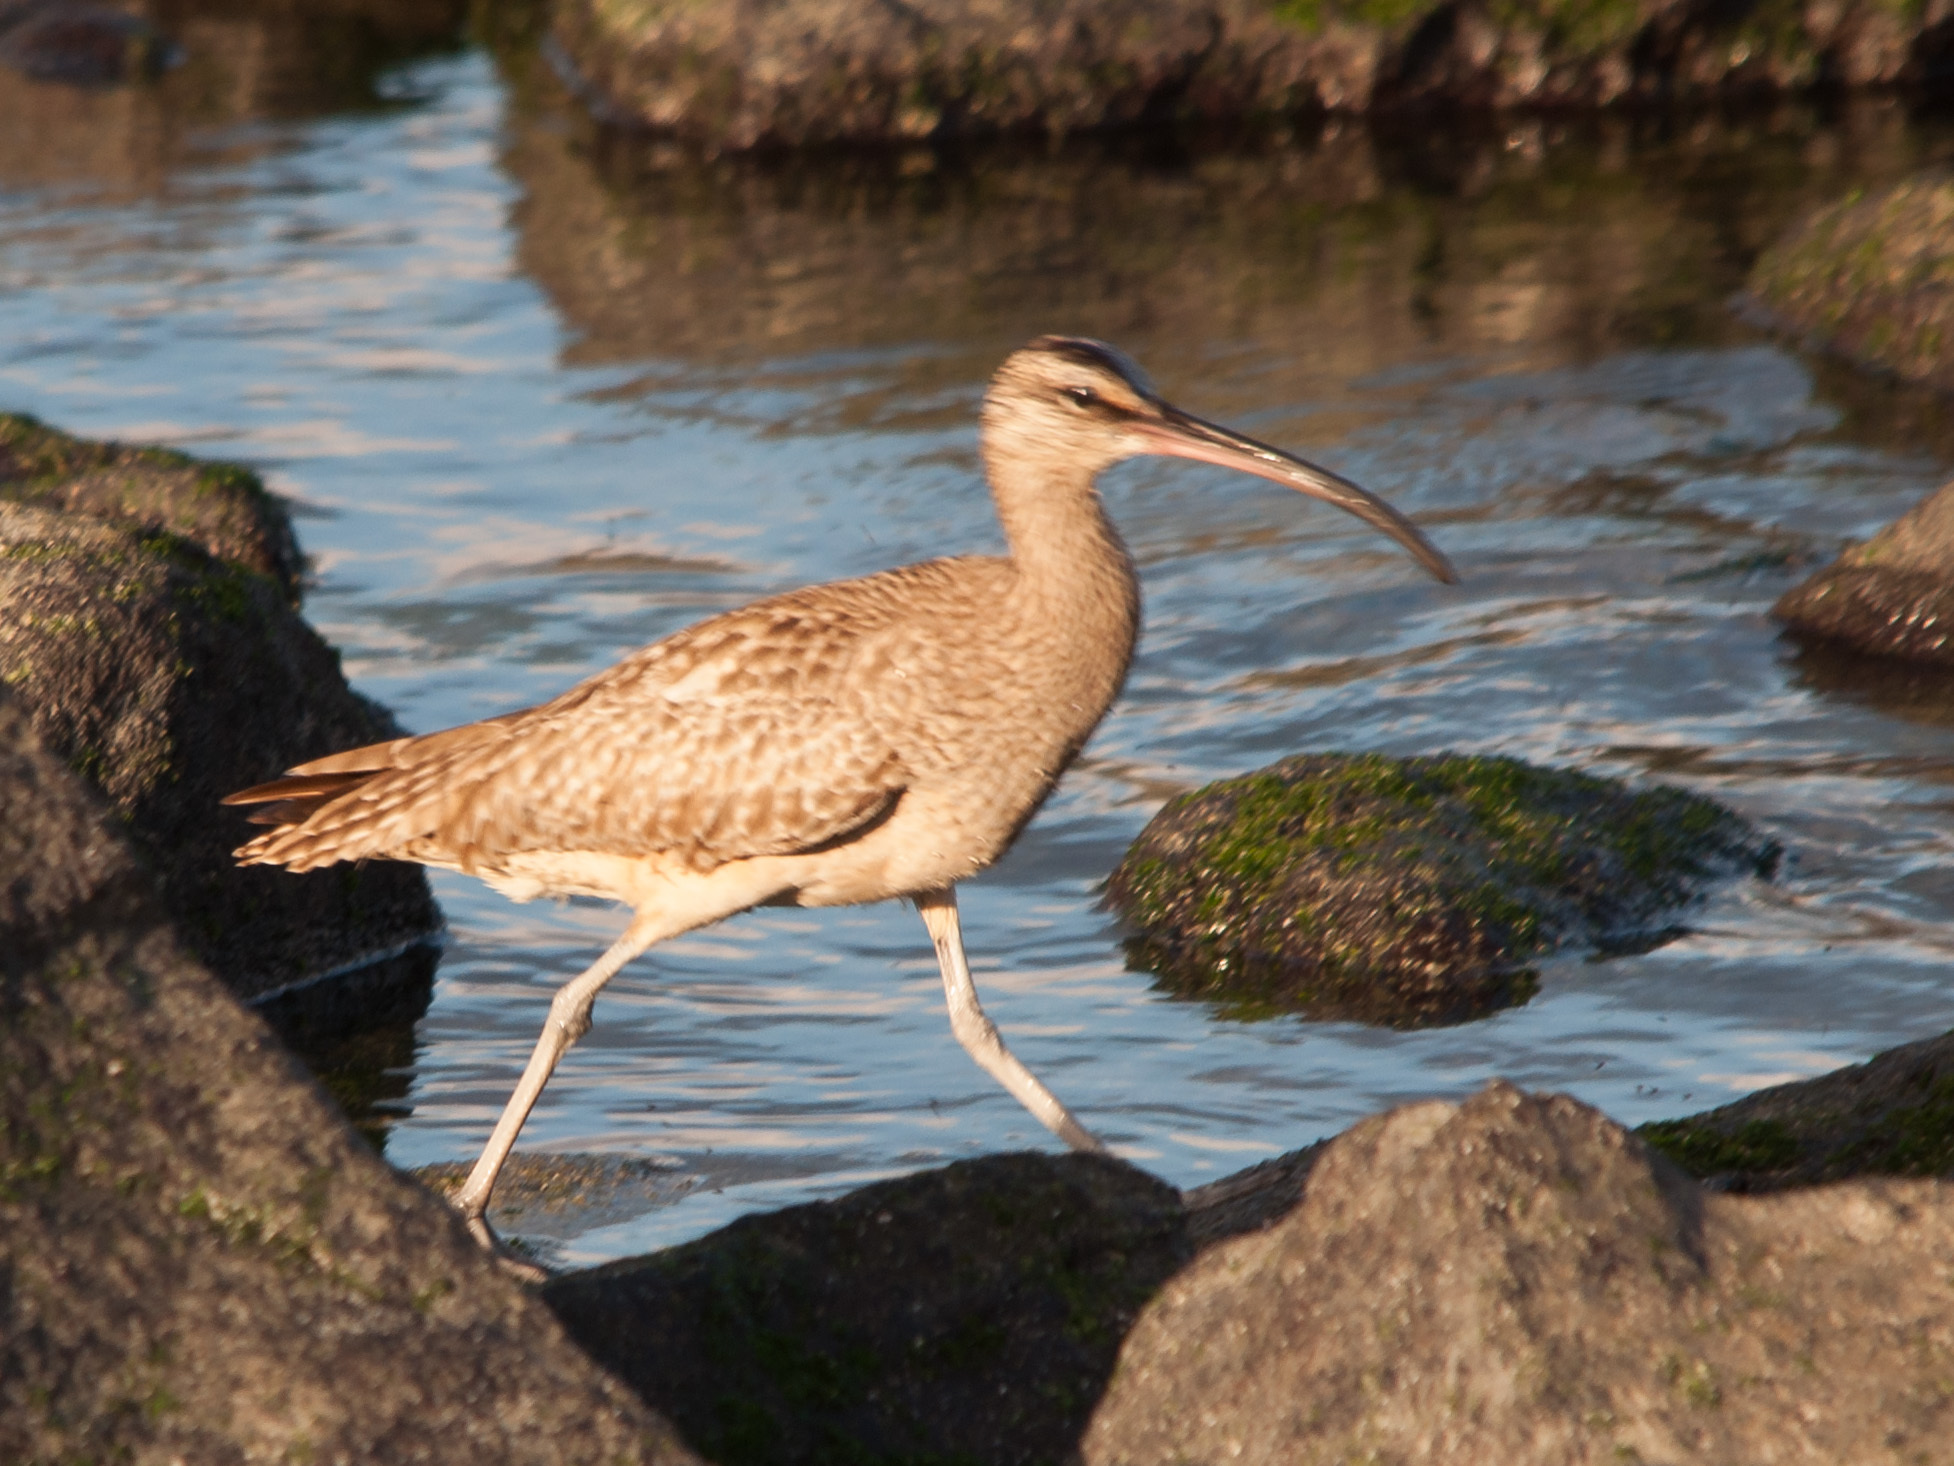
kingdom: Animalia
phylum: Chordata
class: Aves
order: Charadriiformes
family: Scolopacidae
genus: Numenius
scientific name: Numenius phaeopus
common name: Whimbrel
